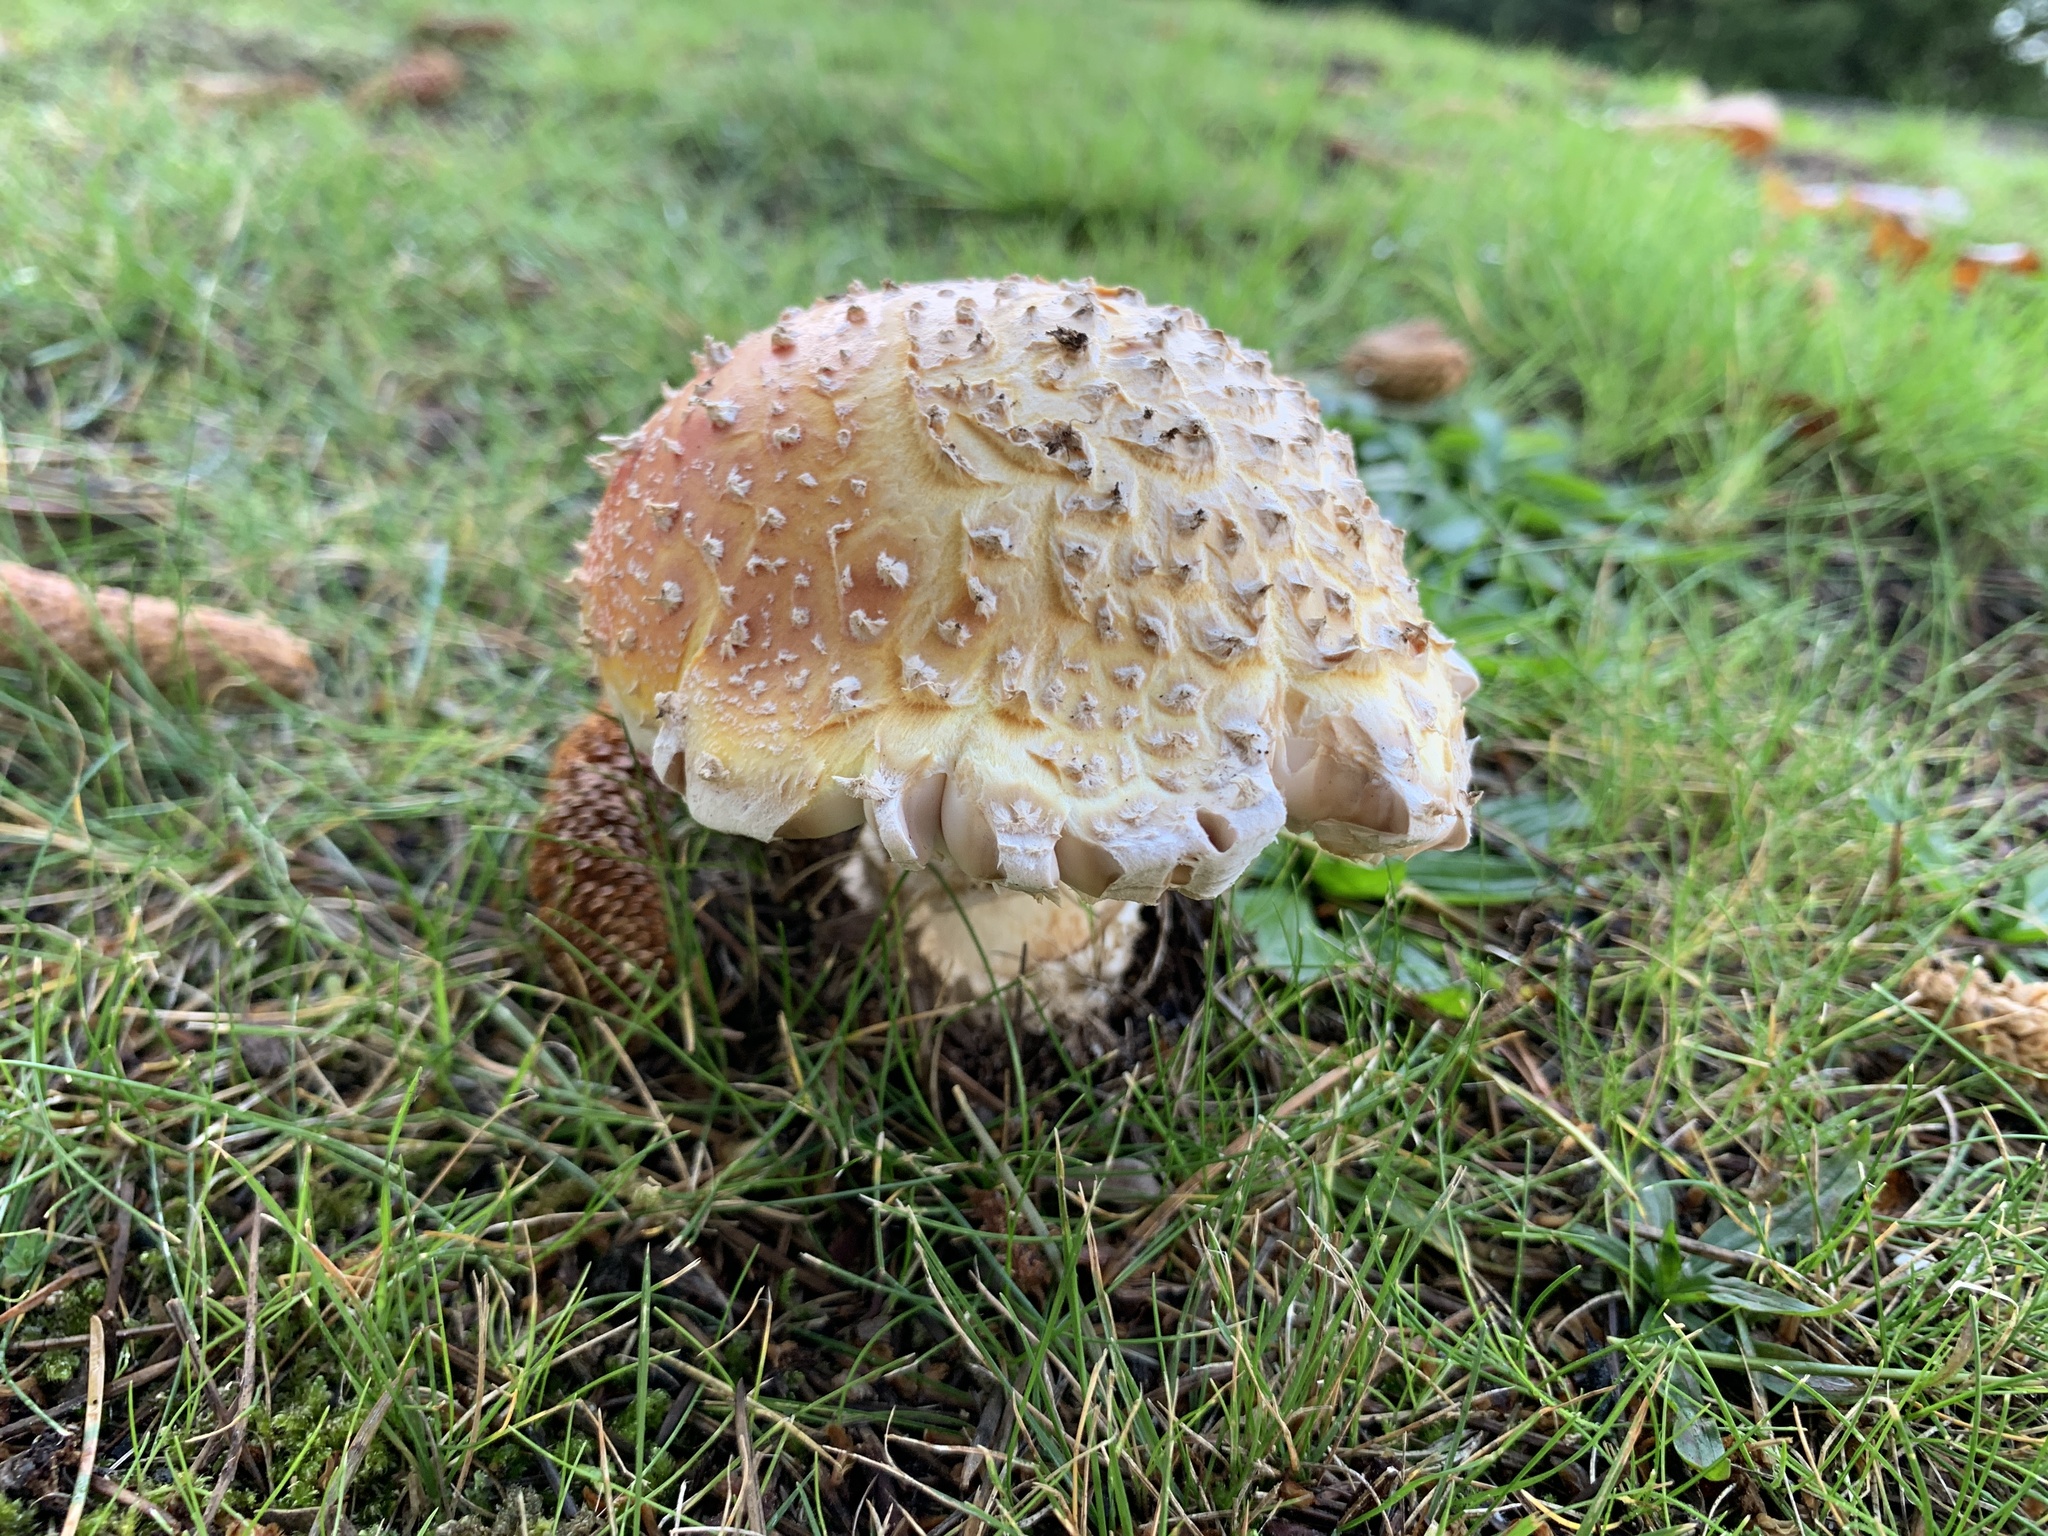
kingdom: Fungi
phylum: Basidiomycota
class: Agaricomycetes
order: Agaricales
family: Amanitaceae
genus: Amanita
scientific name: Amanita muscaria
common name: Fly agaric
